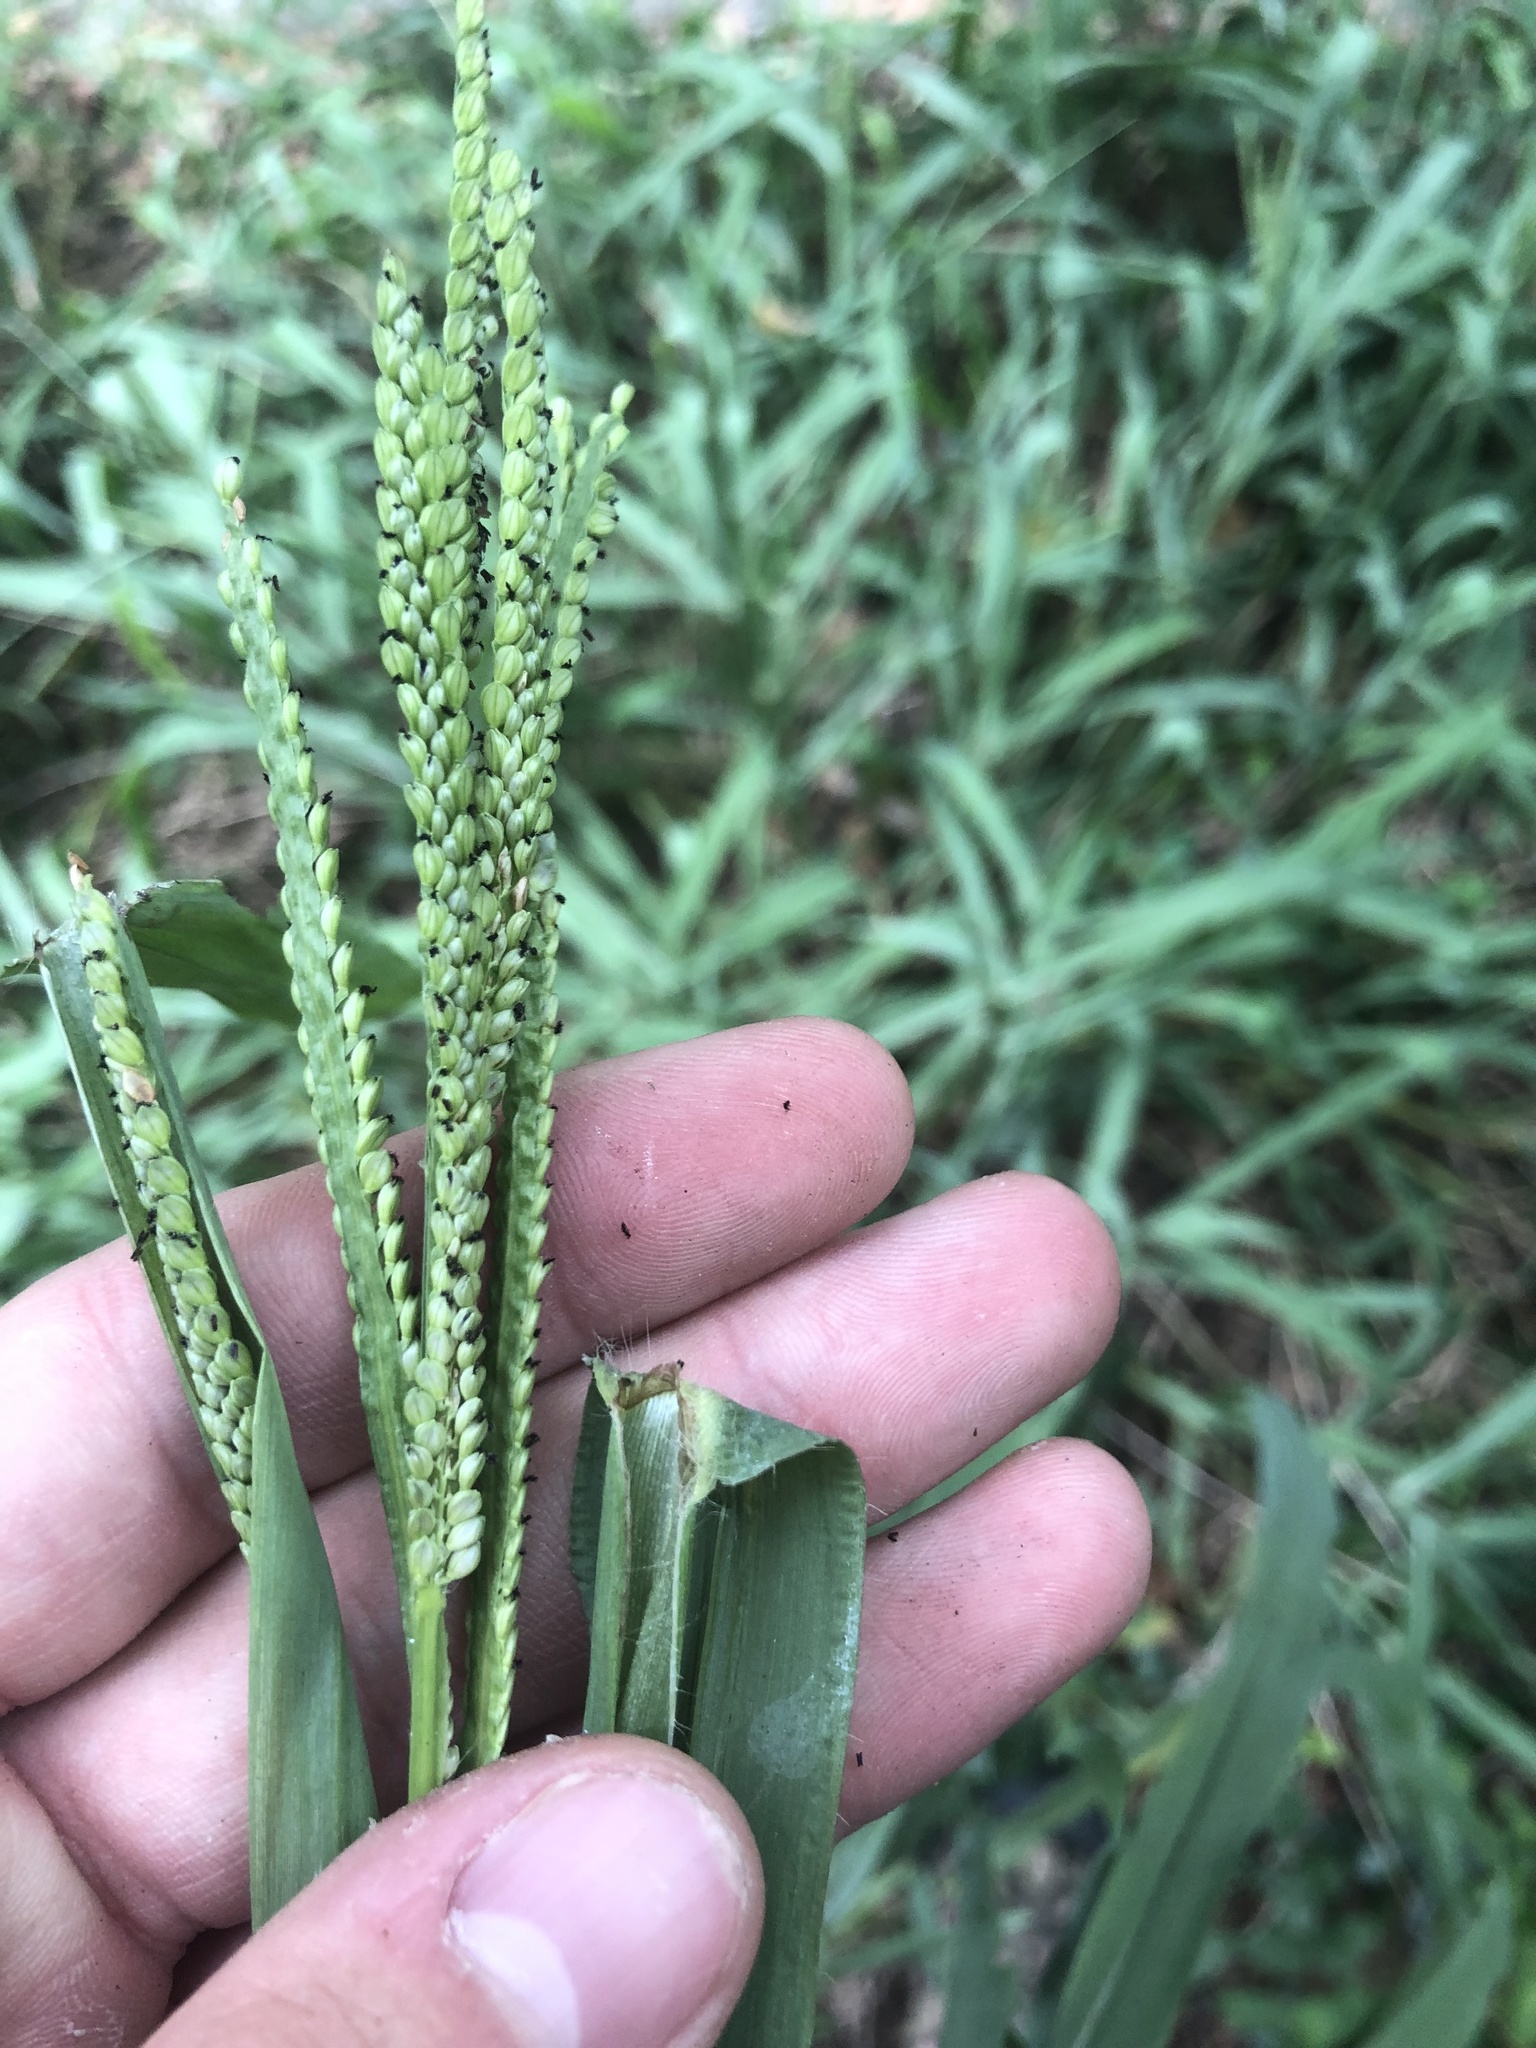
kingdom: Plantae
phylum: Tracheophyta
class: Liliopsida
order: Poales
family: Poaceae
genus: Paspalum
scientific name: Paspalum pubiflorum
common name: Hairy-seed paspalum
